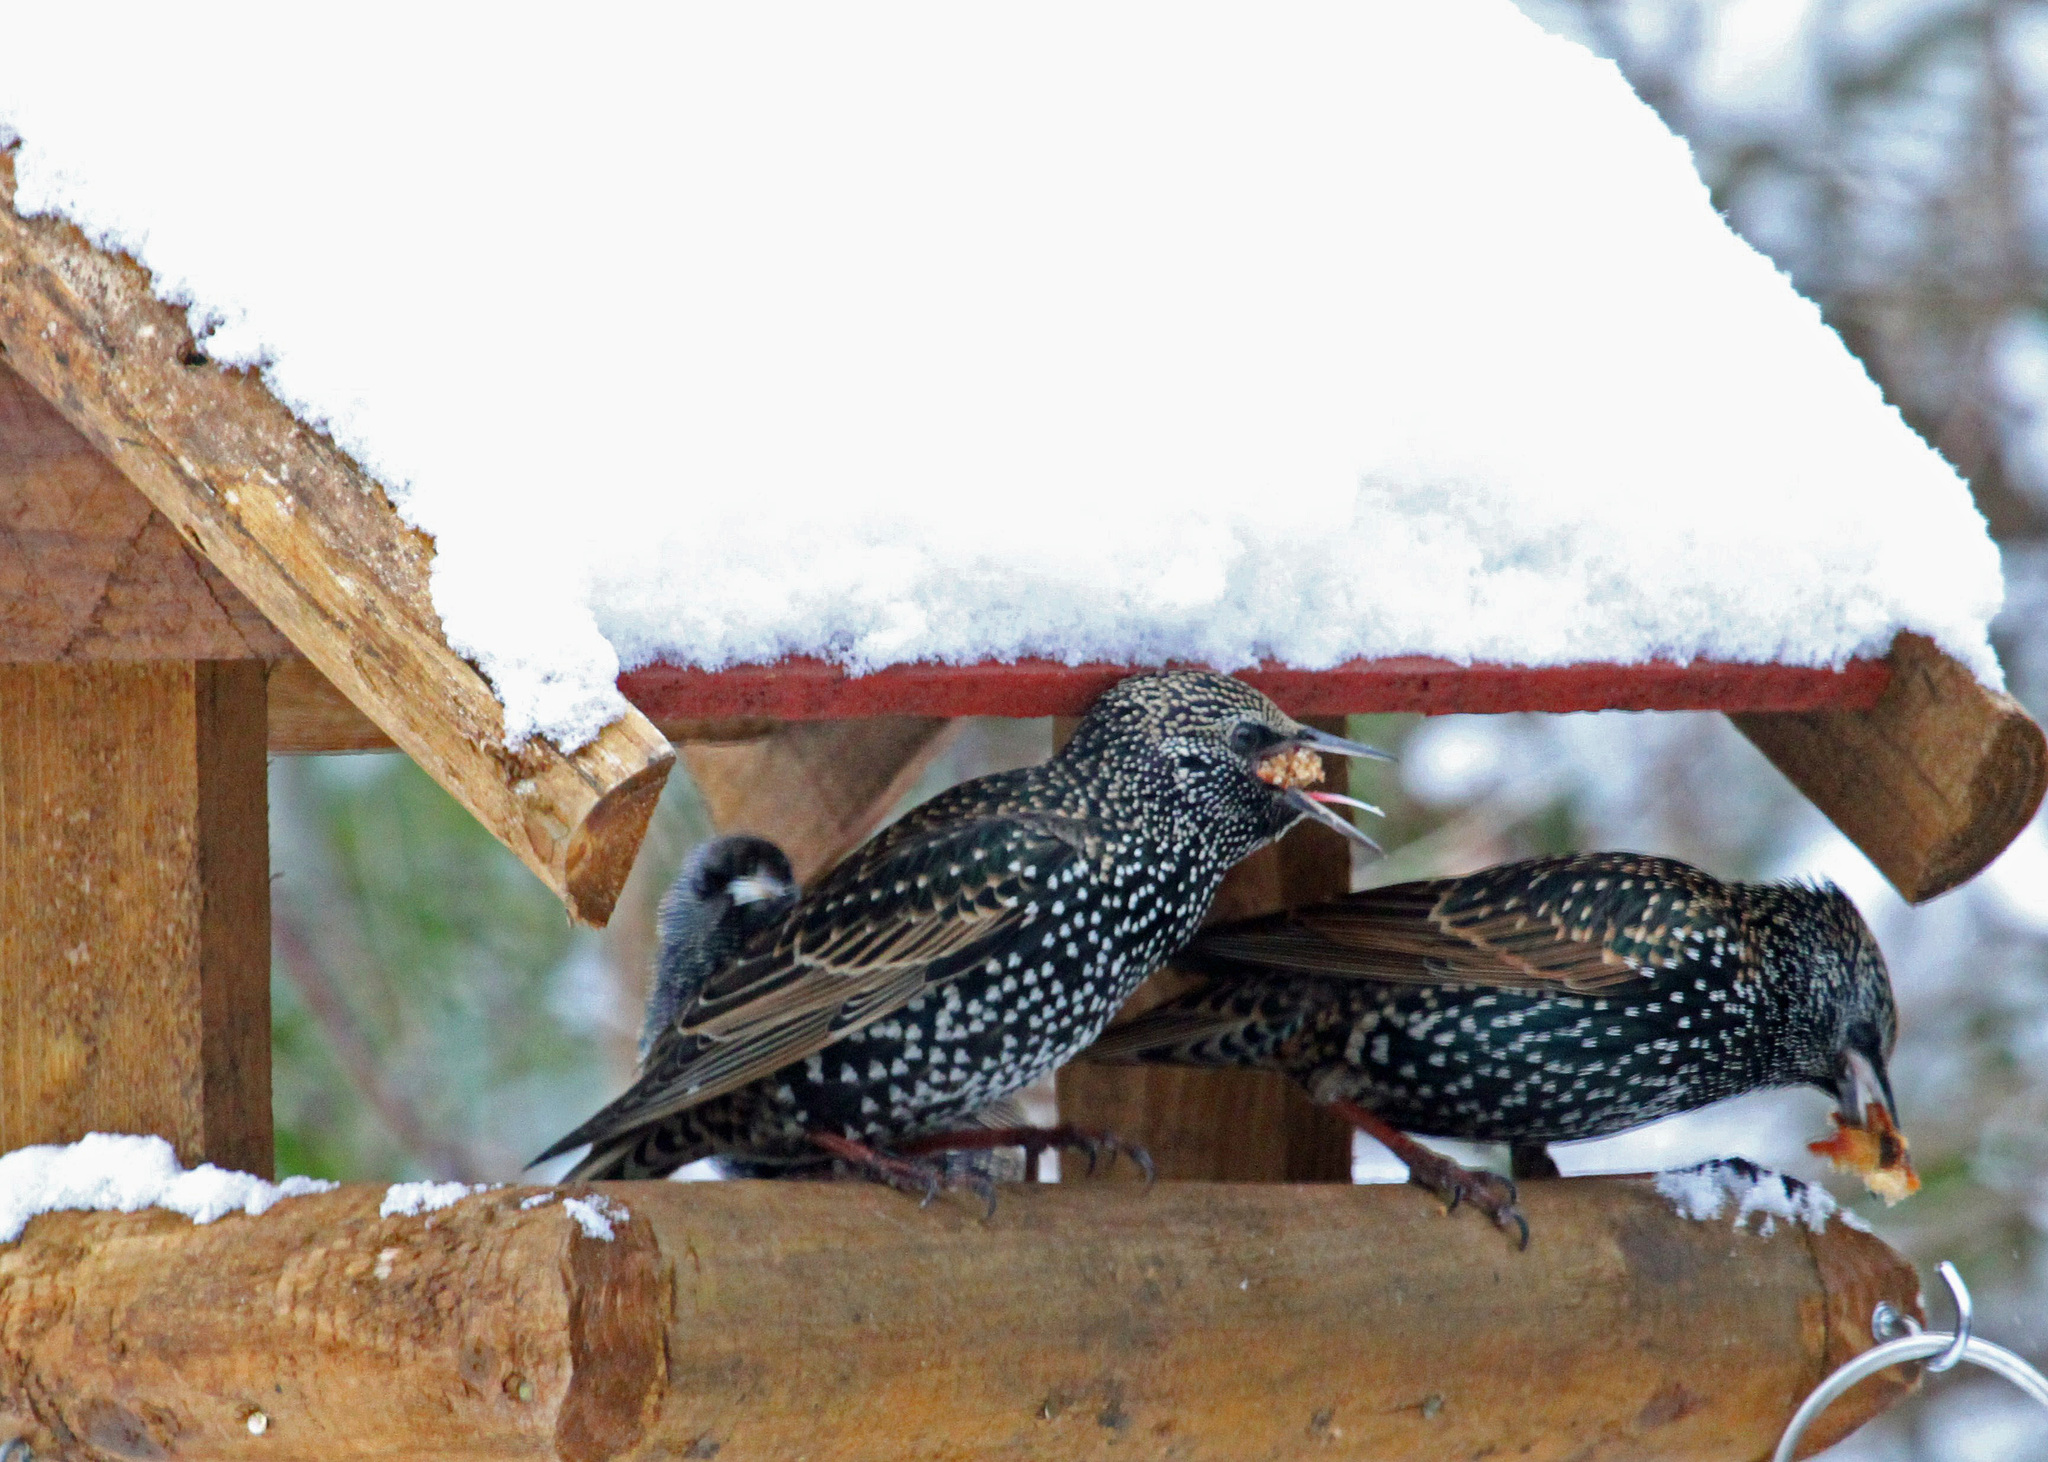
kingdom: Animalia
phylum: Chordata
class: Aves
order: Passeriformes
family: Sturnidae
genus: Sturnus
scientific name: Sturnus vulgaris
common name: Common starling
